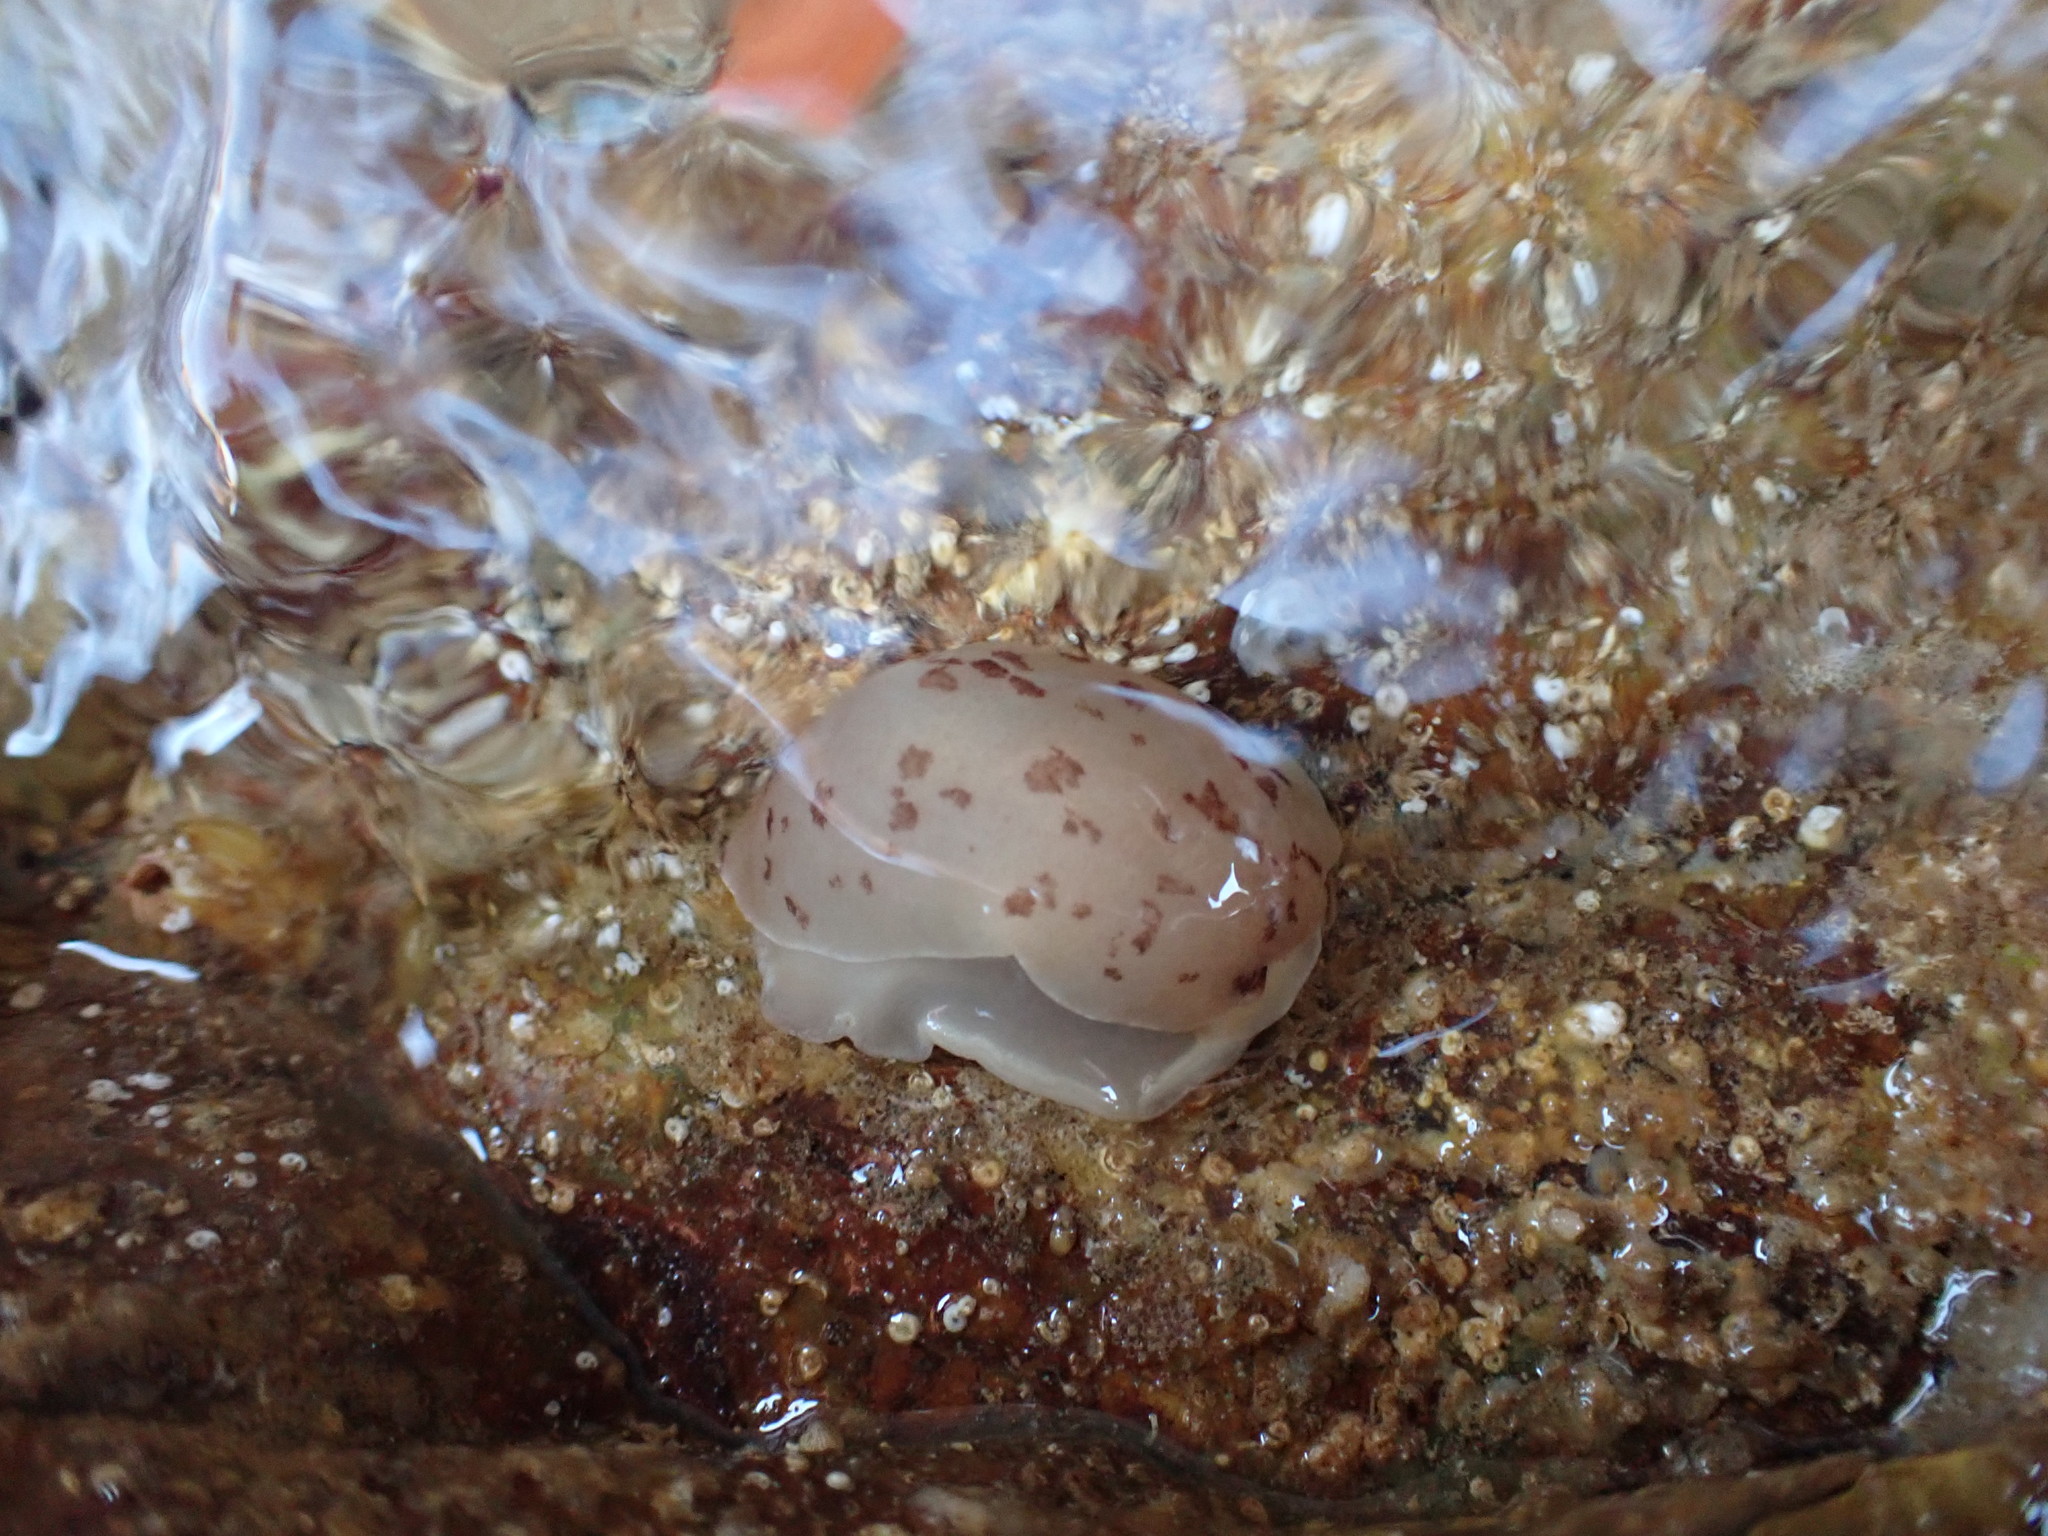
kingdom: Animalia
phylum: Mollusca
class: Gastropoda
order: Pleurobranchida
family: Pleurobranchidae
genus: Berthella
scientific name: Berthella ornata
